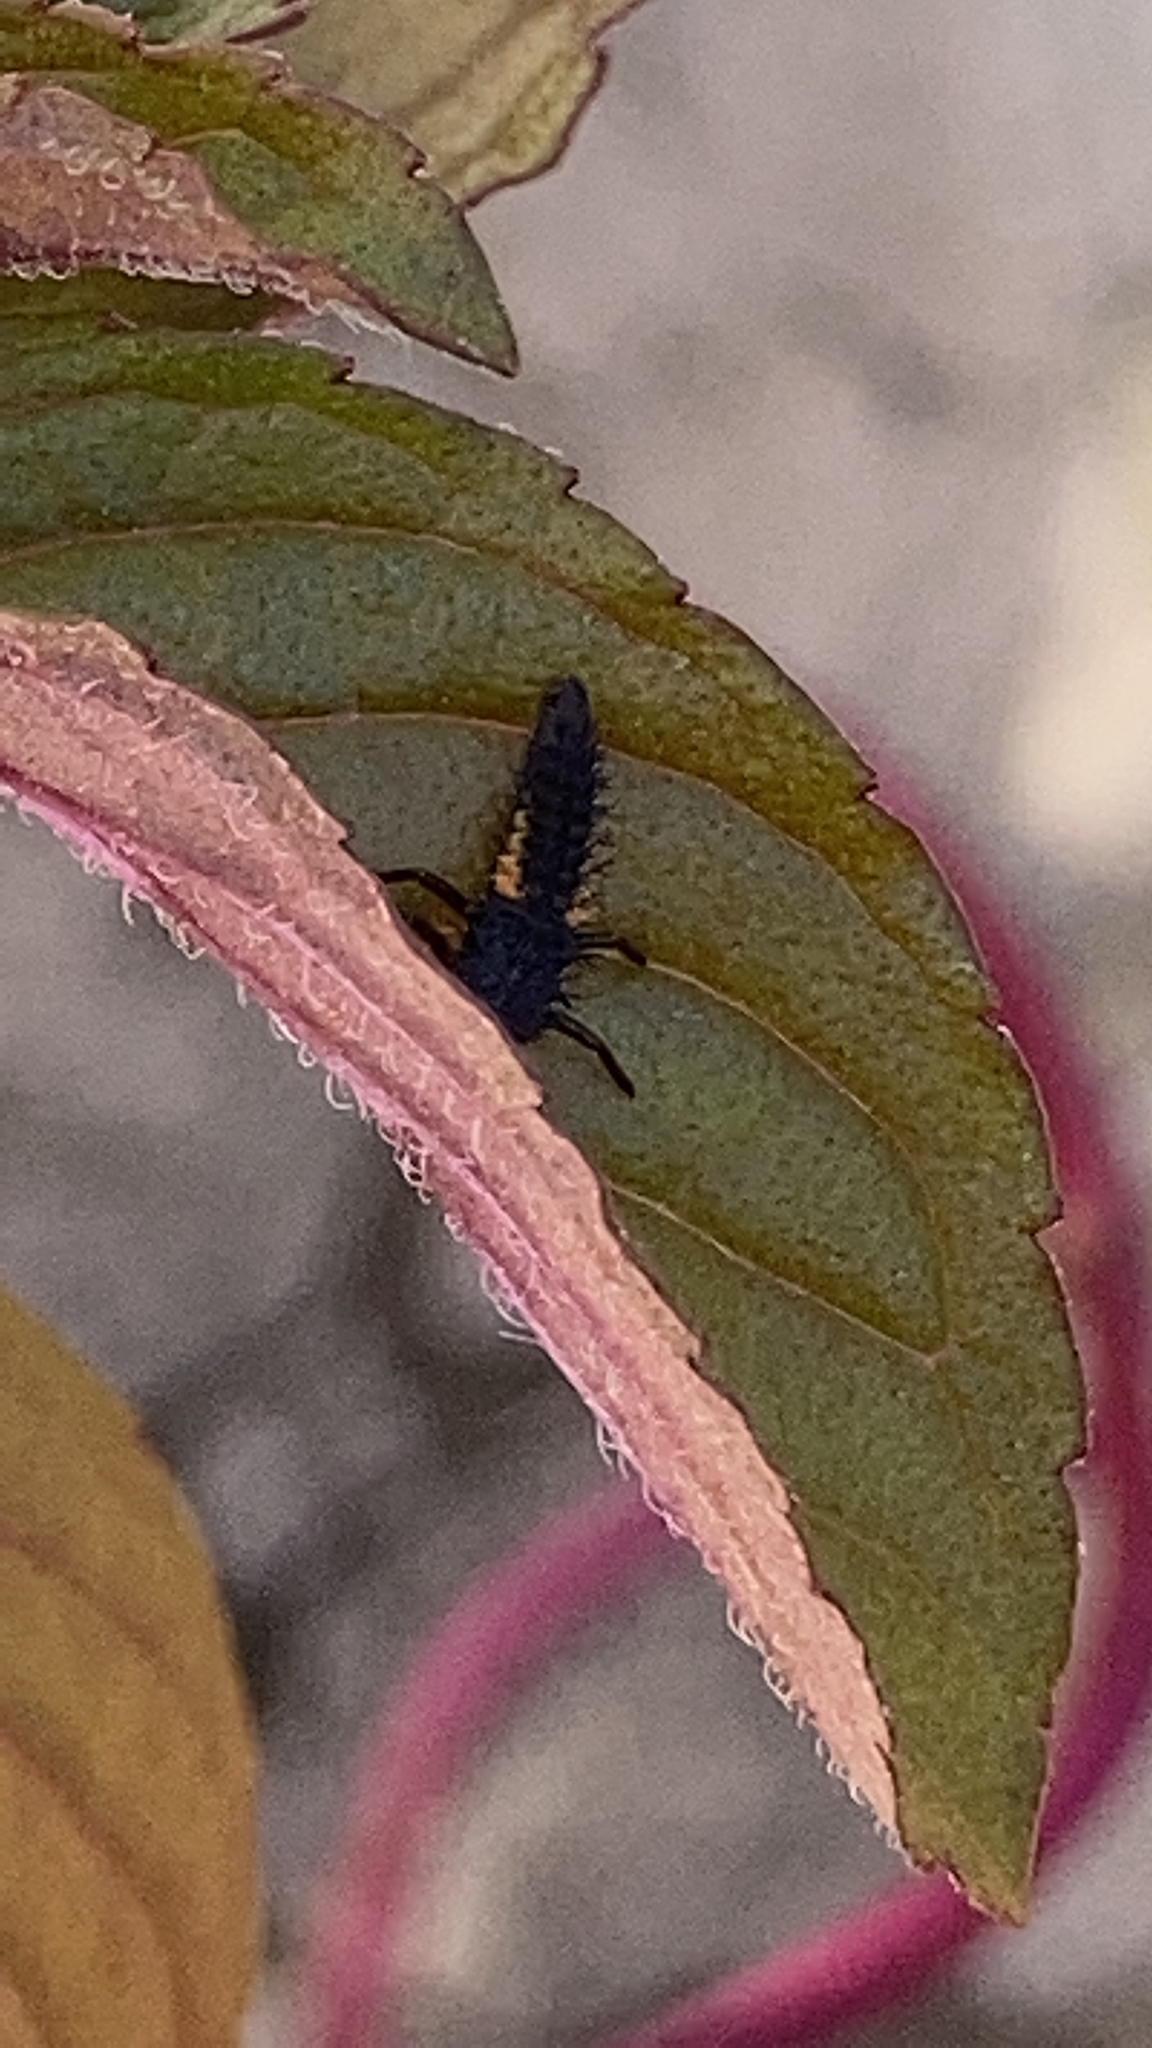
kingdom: Animalia
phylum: Arthropoda
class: Insecta
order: Coleoptera
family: Coccinellidae
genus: Harmonia
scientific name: Harmonia axyridis
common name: Harlequin ladybird
